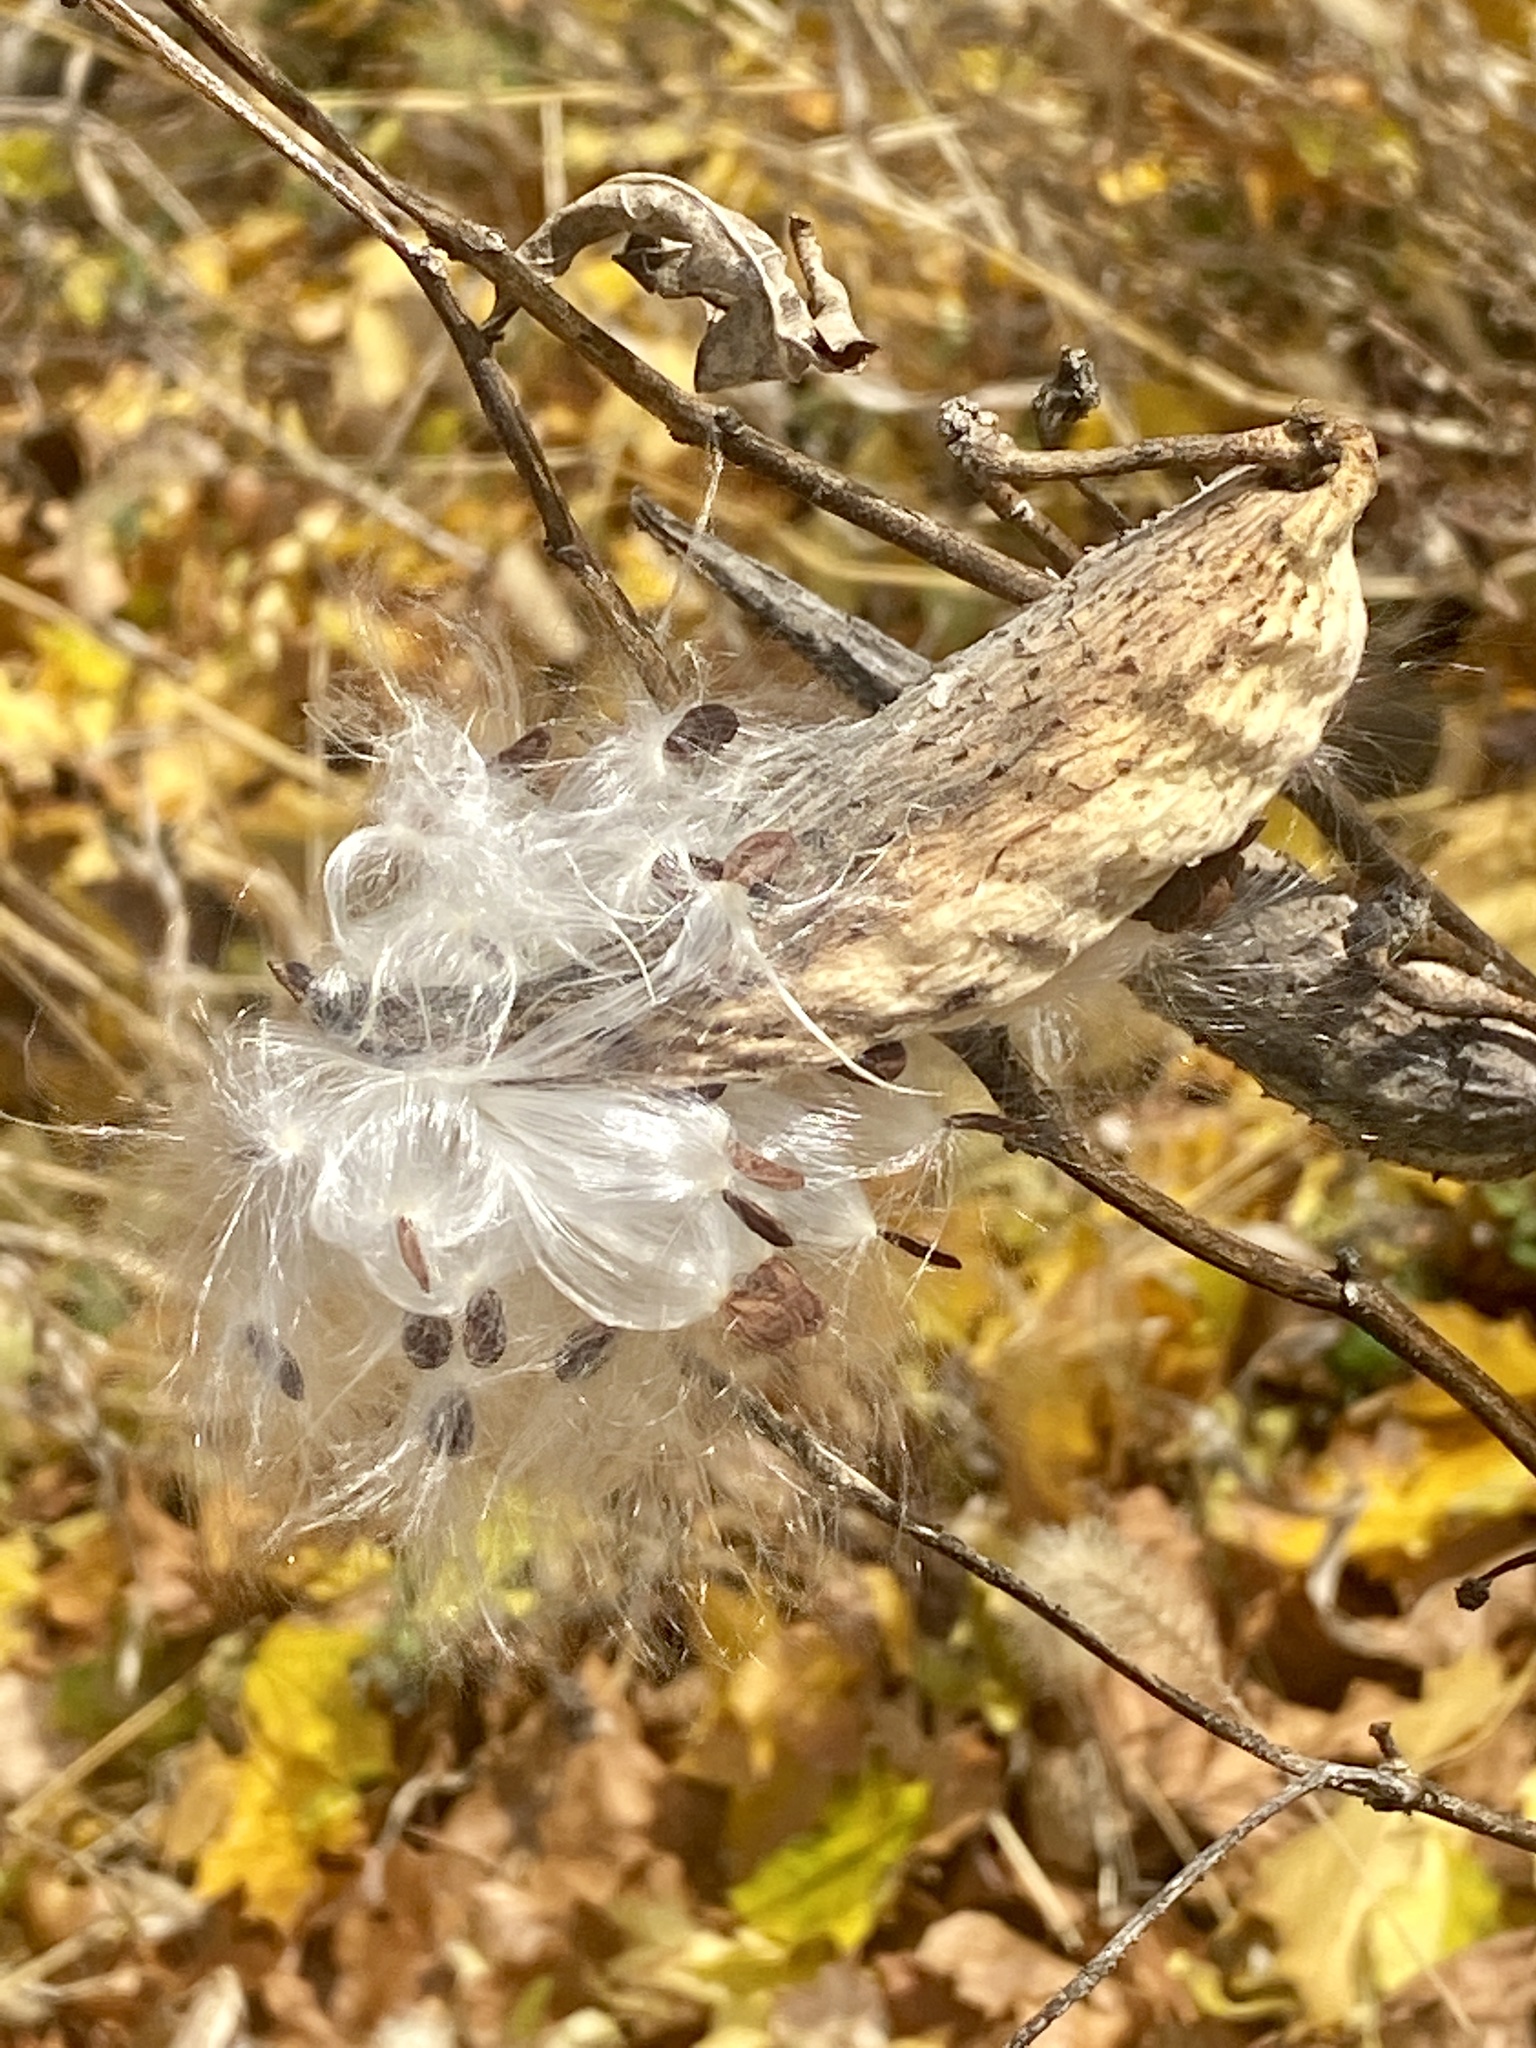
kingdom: Plantae
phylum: Tracheophyta
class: Magnoliopsida
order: Gentianales
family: Apocynaceae
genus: Asclepias
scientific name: Asclepias syriaca
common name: Common milkweed
